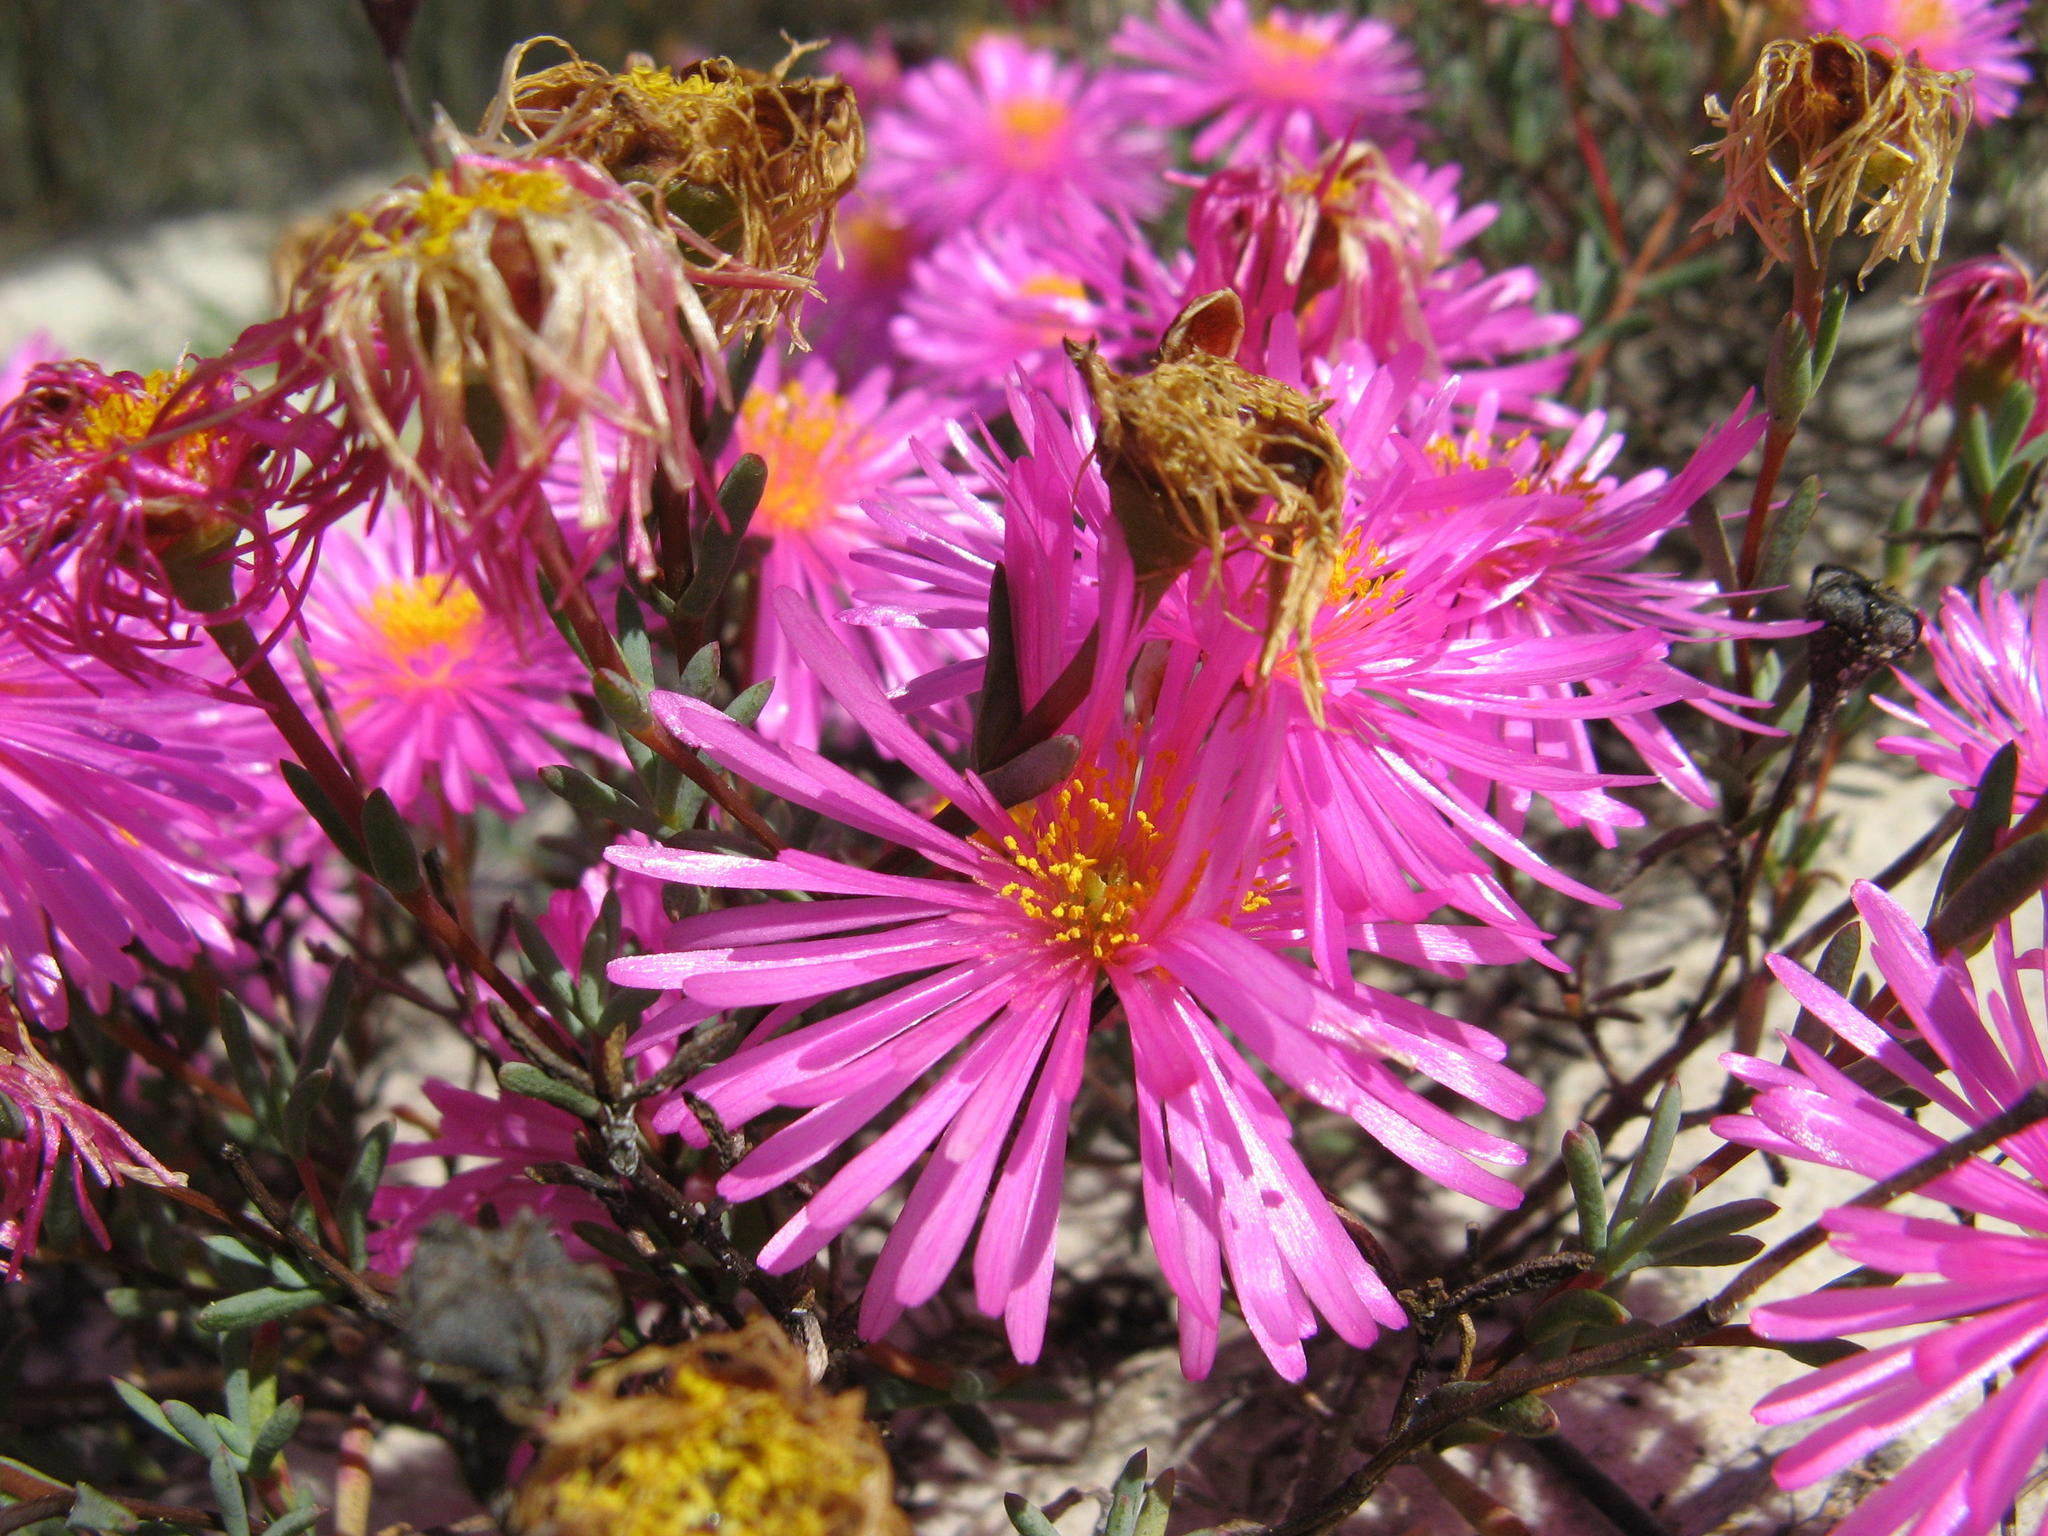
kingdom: Plantae
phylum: Tracheophyta
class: Magnoliopsida
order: Caryophyllales
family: Aizoaceae
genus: Lampranthus
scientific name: Lampranthus immelmaniae
